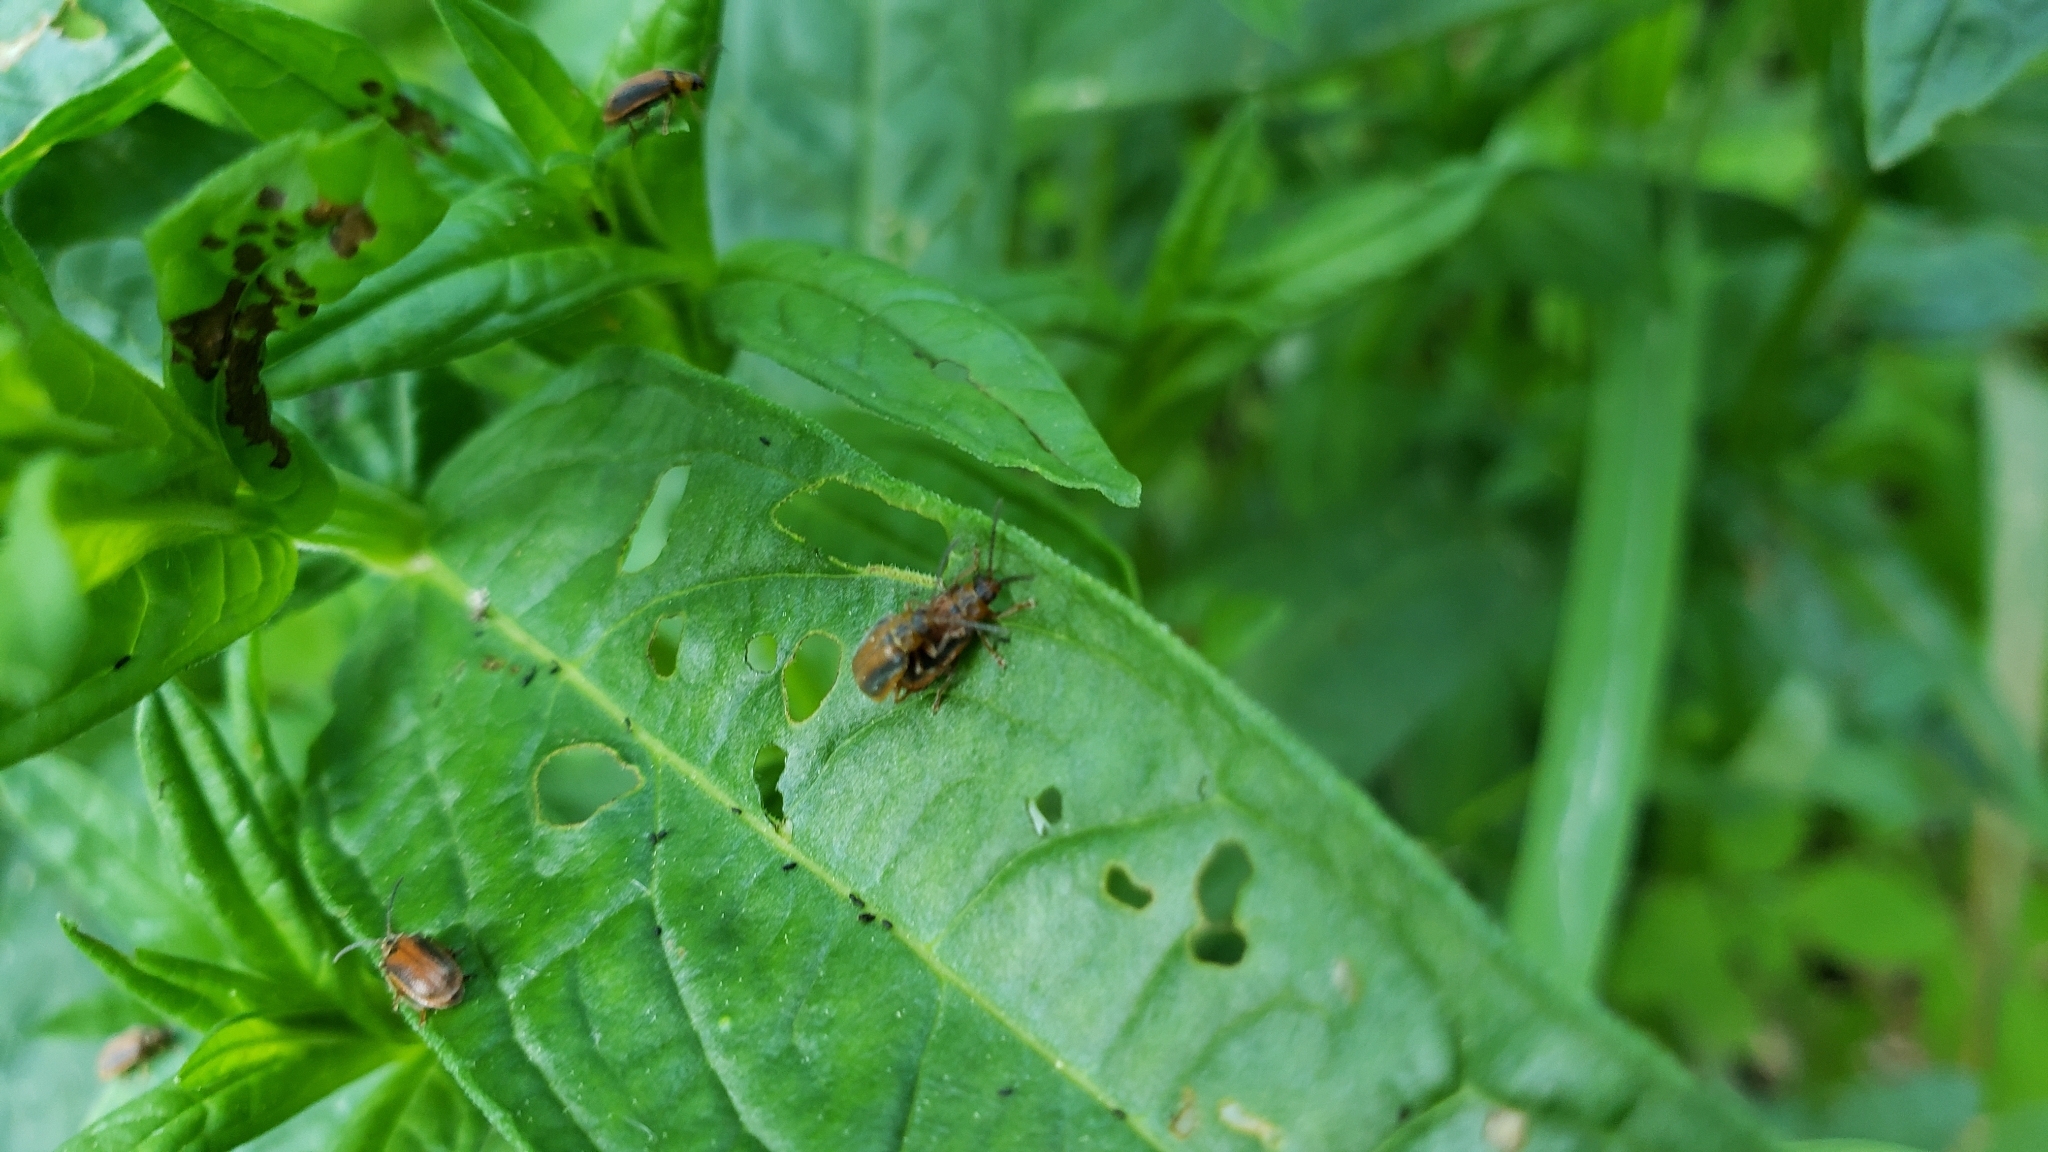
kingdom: Animalia
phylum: Arthropoda
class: Insecta
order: Coleoptera
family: Chrysomelidae
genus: Neogalerucella
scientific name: Neogalerucella calmariensis
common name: Black-margined loosestrife beetle
